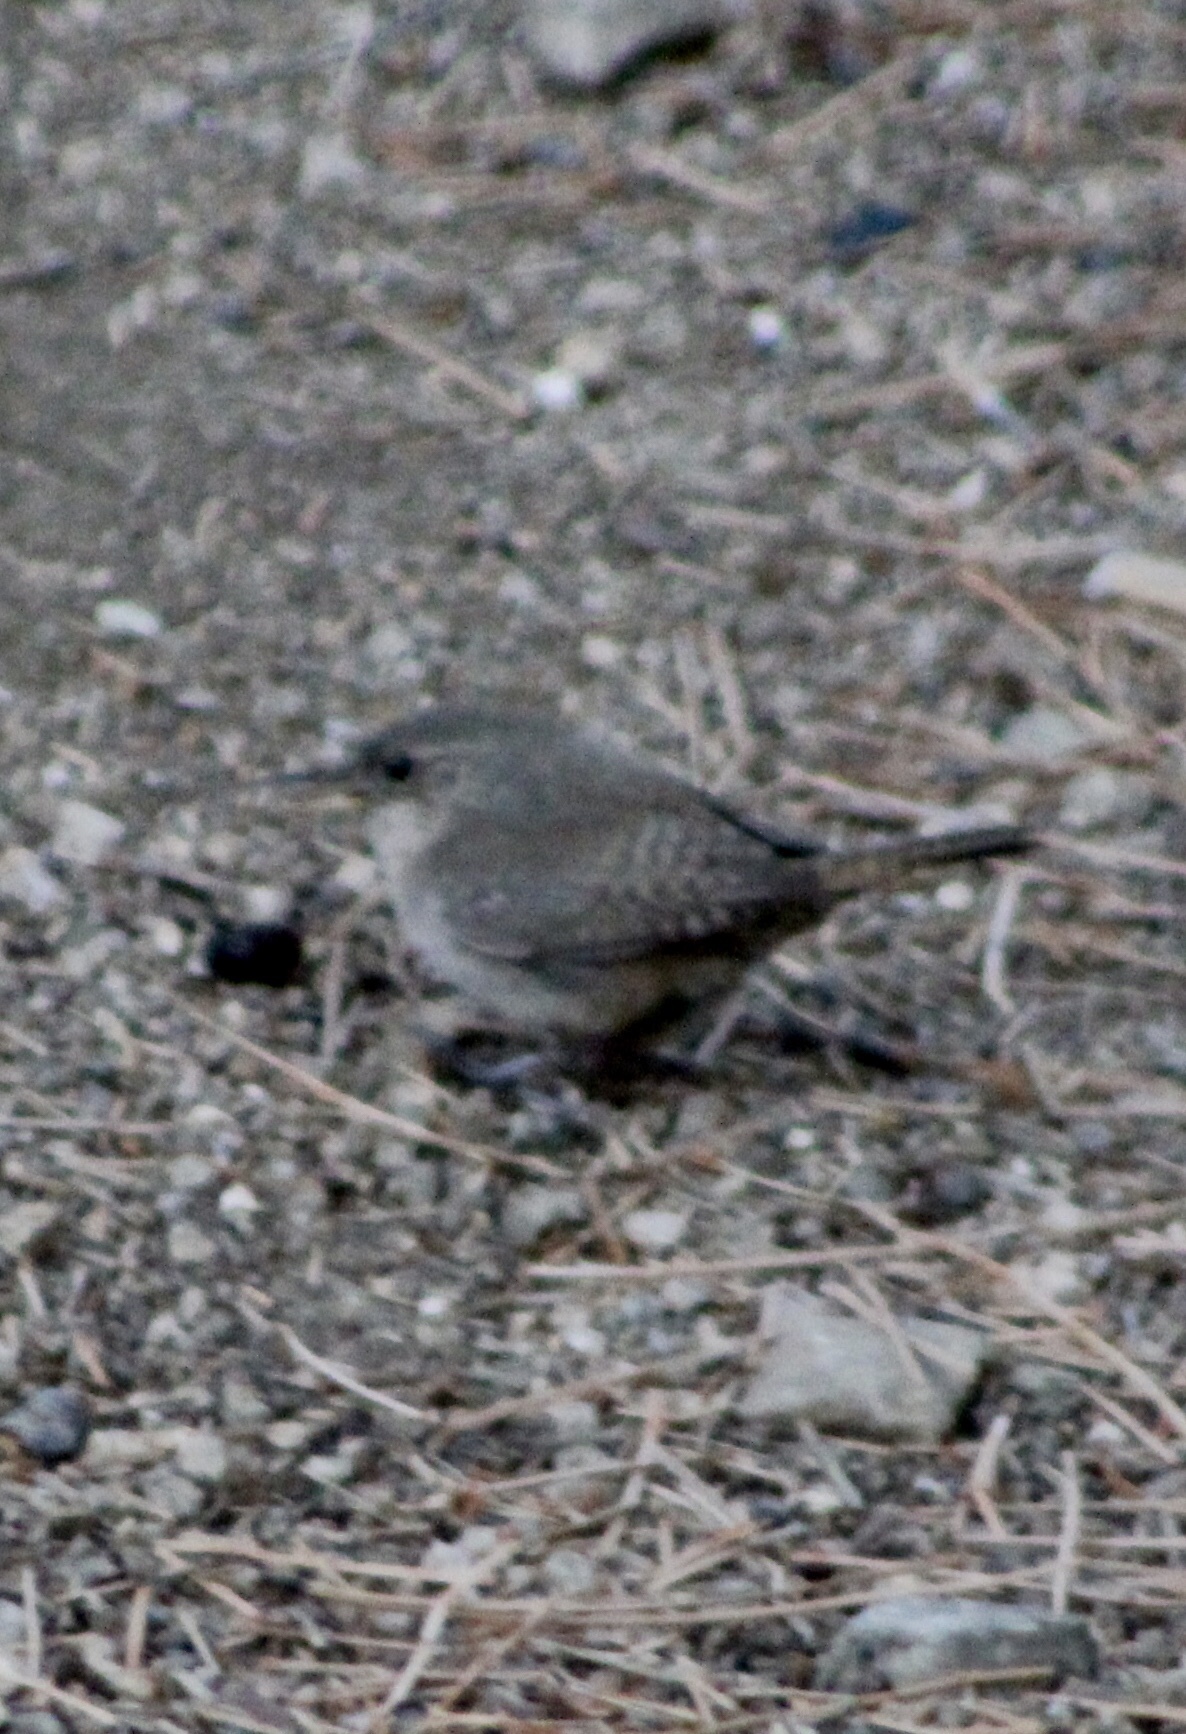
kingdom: Animalia
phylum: Chordata
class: Aves
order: Passeriformes
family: Troglodytidae
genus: Salpinctes
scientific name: Salpinctes obsoletus
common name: Rock wren
